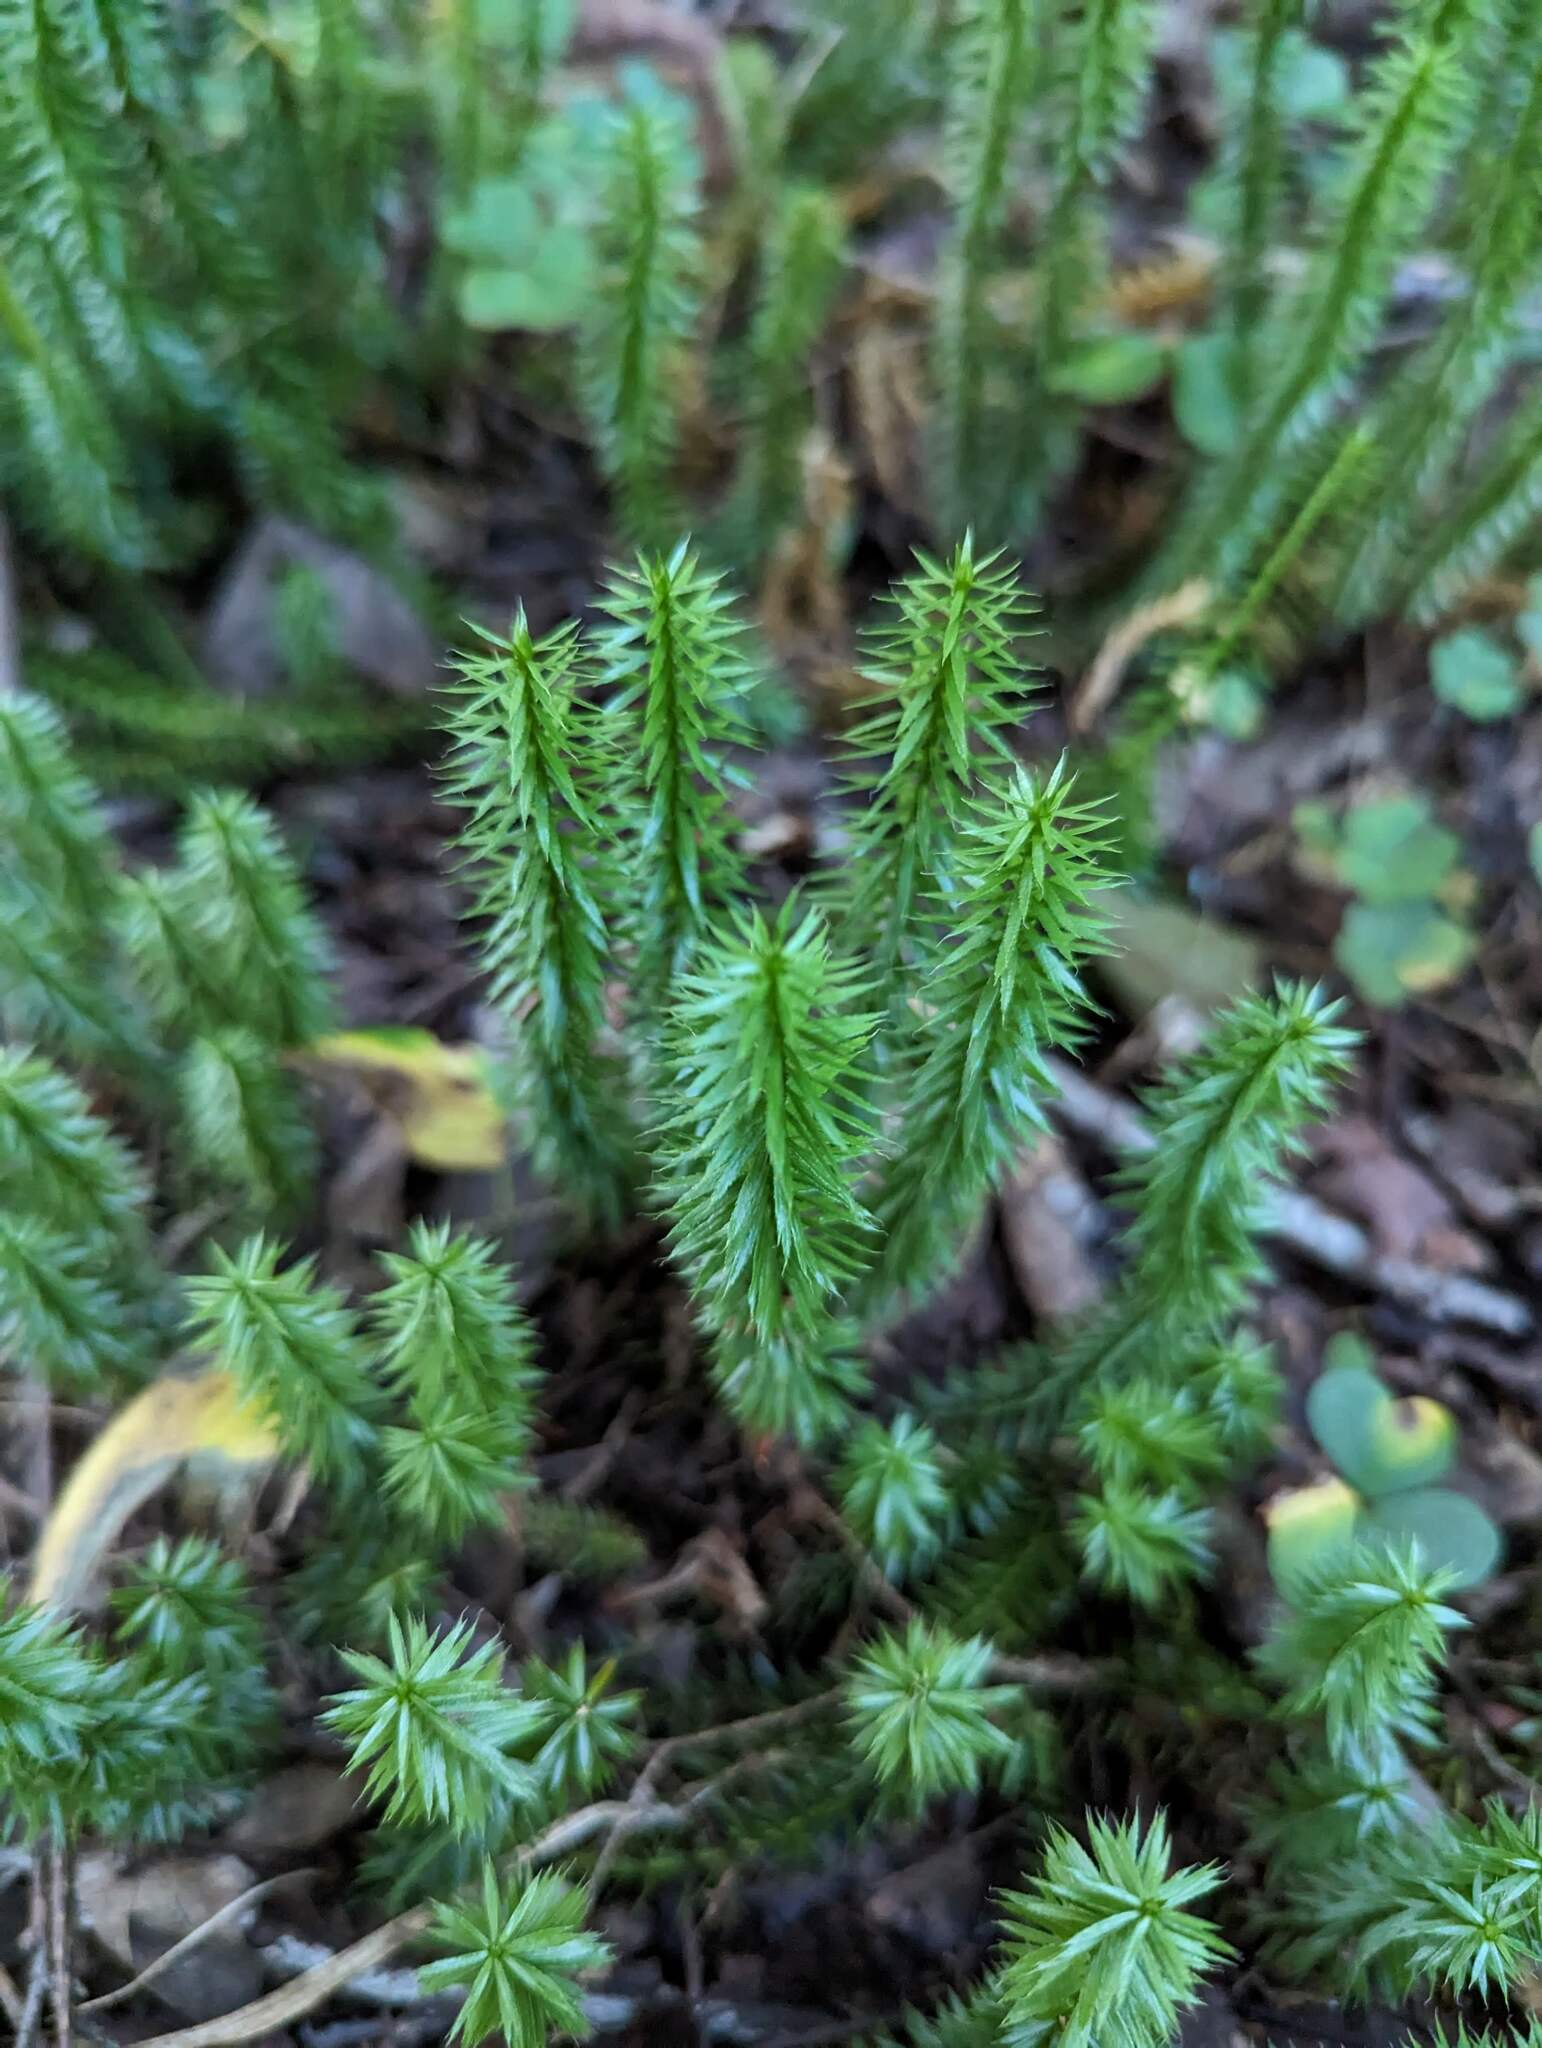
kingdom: Plantae
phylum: Tracheophyta
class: Lycopodiopsida
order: Lycopodiales
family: Lycopodiaceae
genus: Spinulum
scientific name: Spinulum annotinum
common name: Interrupted club-moss
